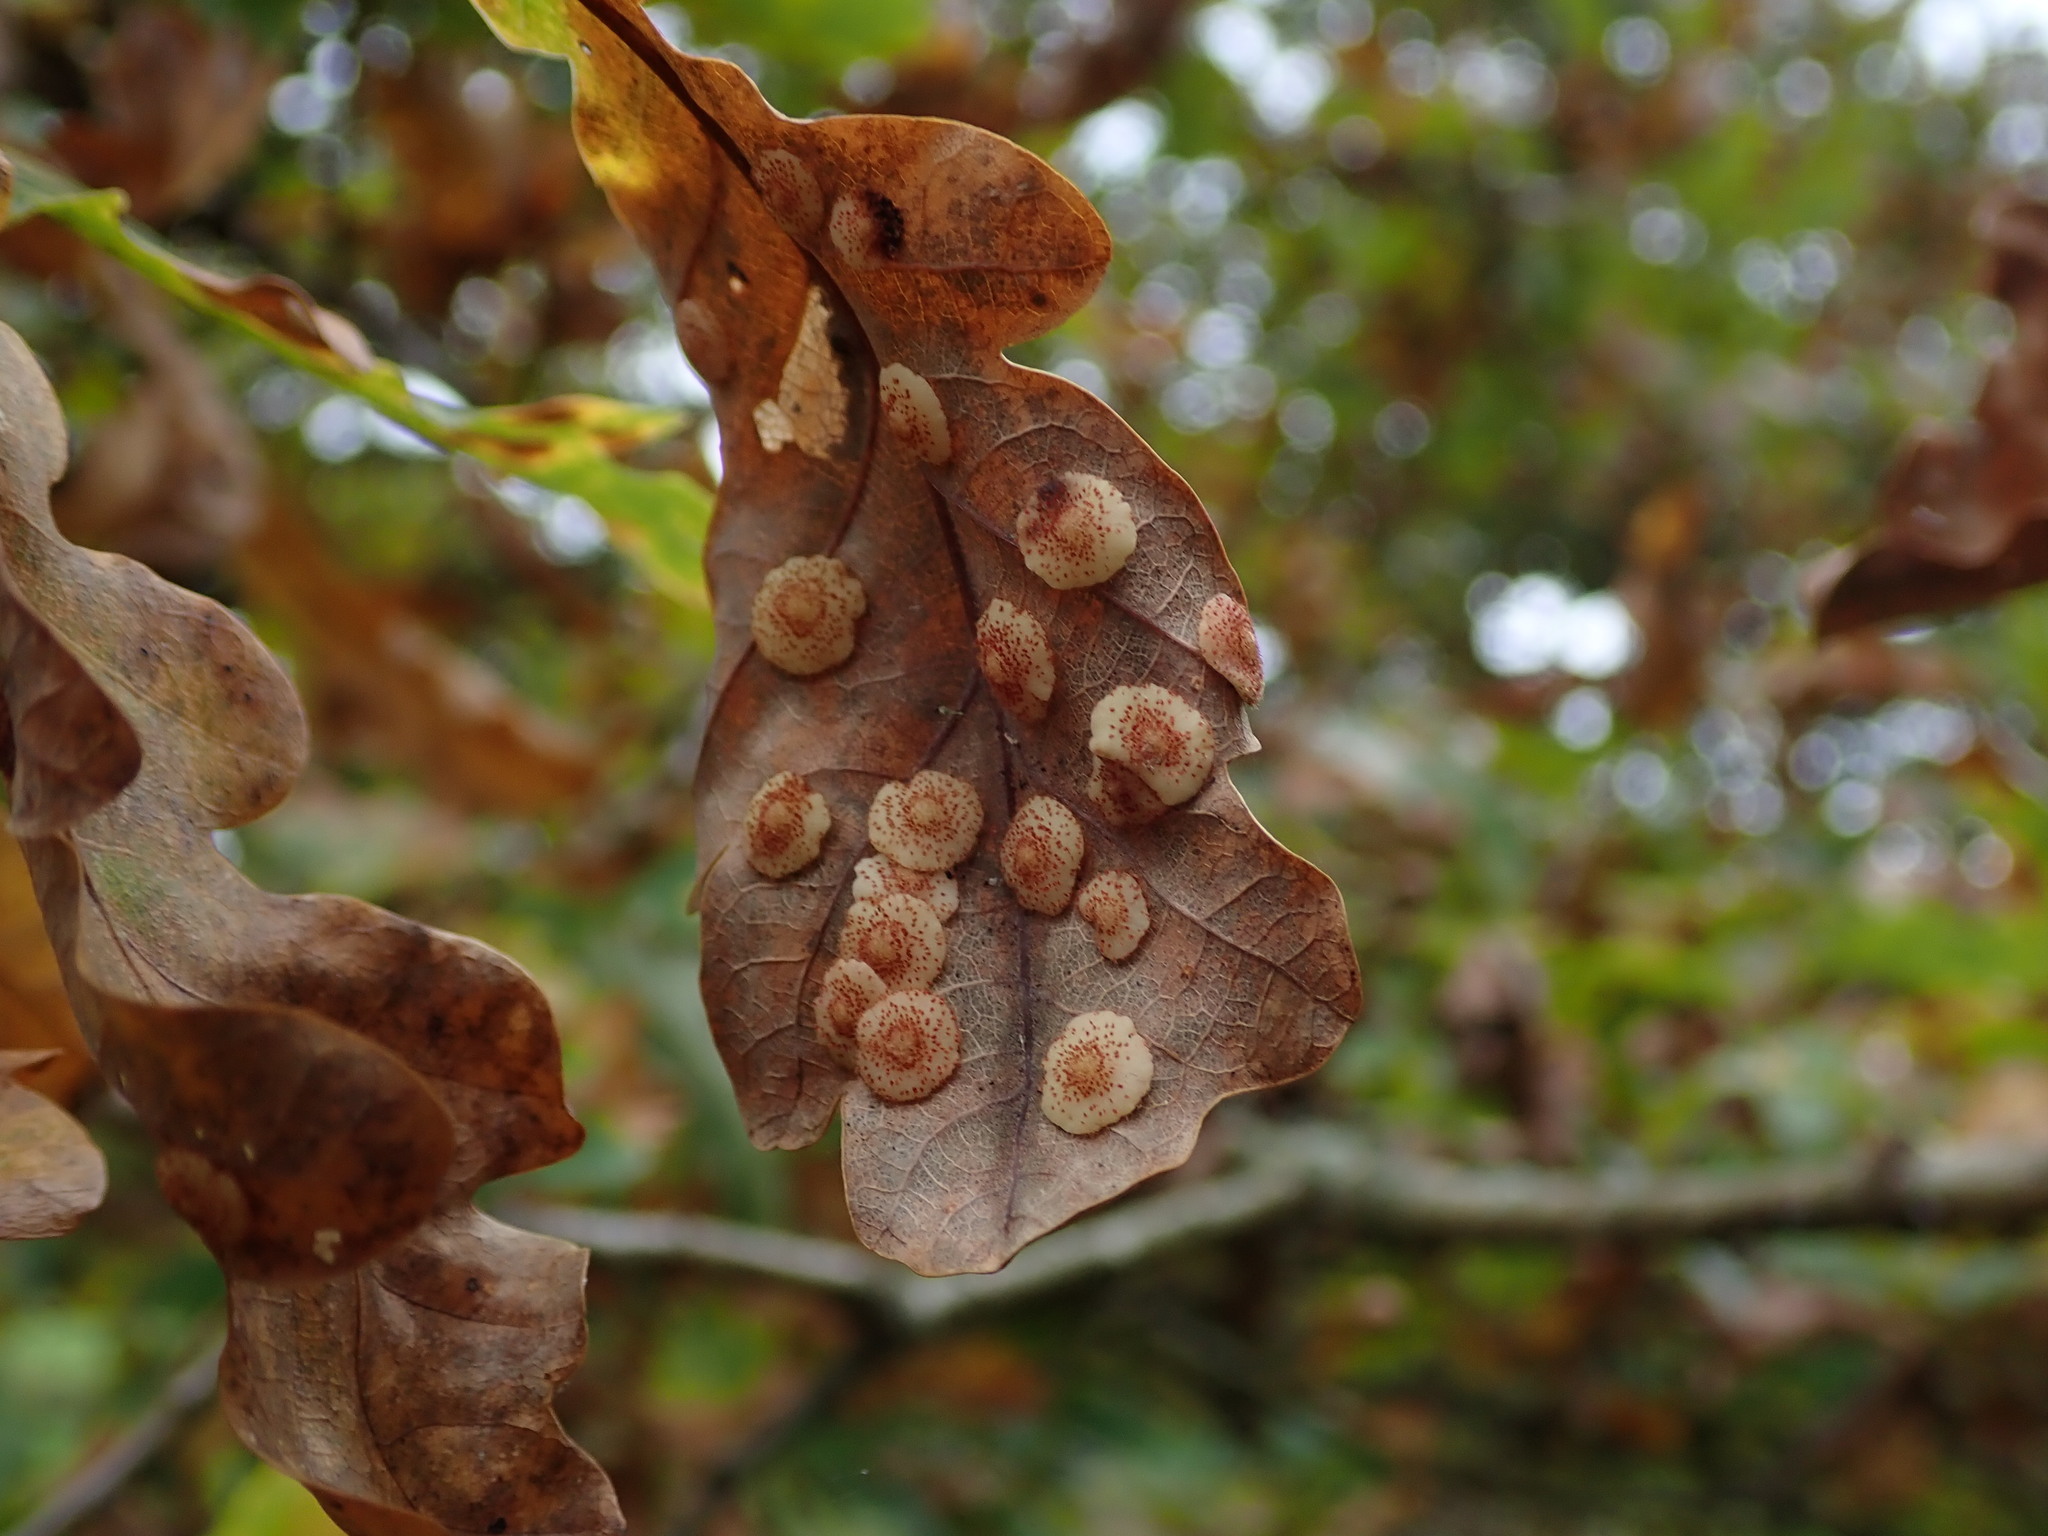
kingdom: Animalia
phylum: Arthropoda
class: Insecta
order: Hymenoptera
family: Cynipidae
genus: Neuroterus
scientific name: Neuroterus quercusbaccarum
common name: Common spangle gall
